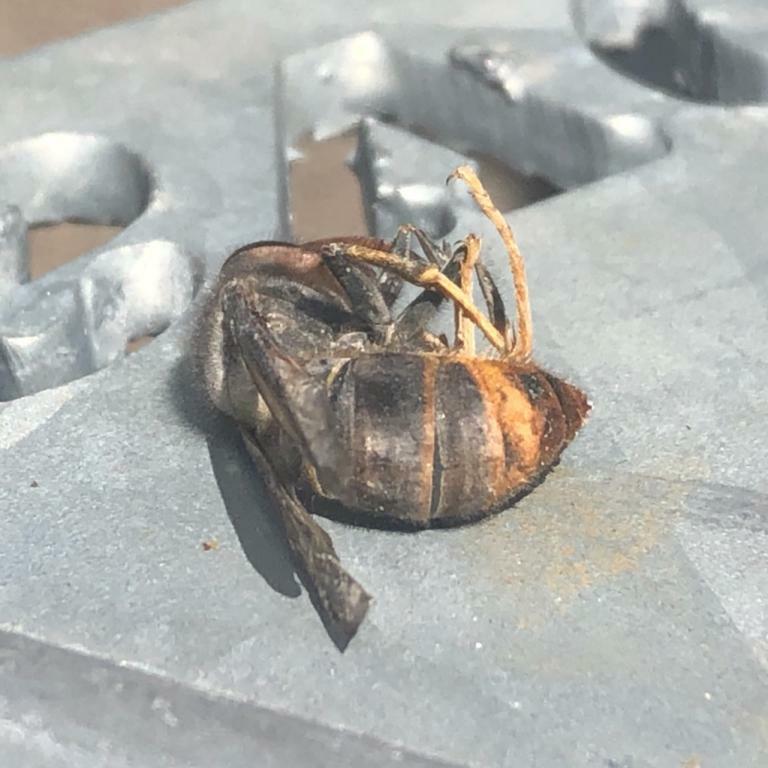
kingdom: Animalia
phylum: Arthropoda
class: Insecta
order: Hymenoptera
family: Vespidae
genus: Vespa
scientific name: Vespa velutina
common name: Asian hornet
